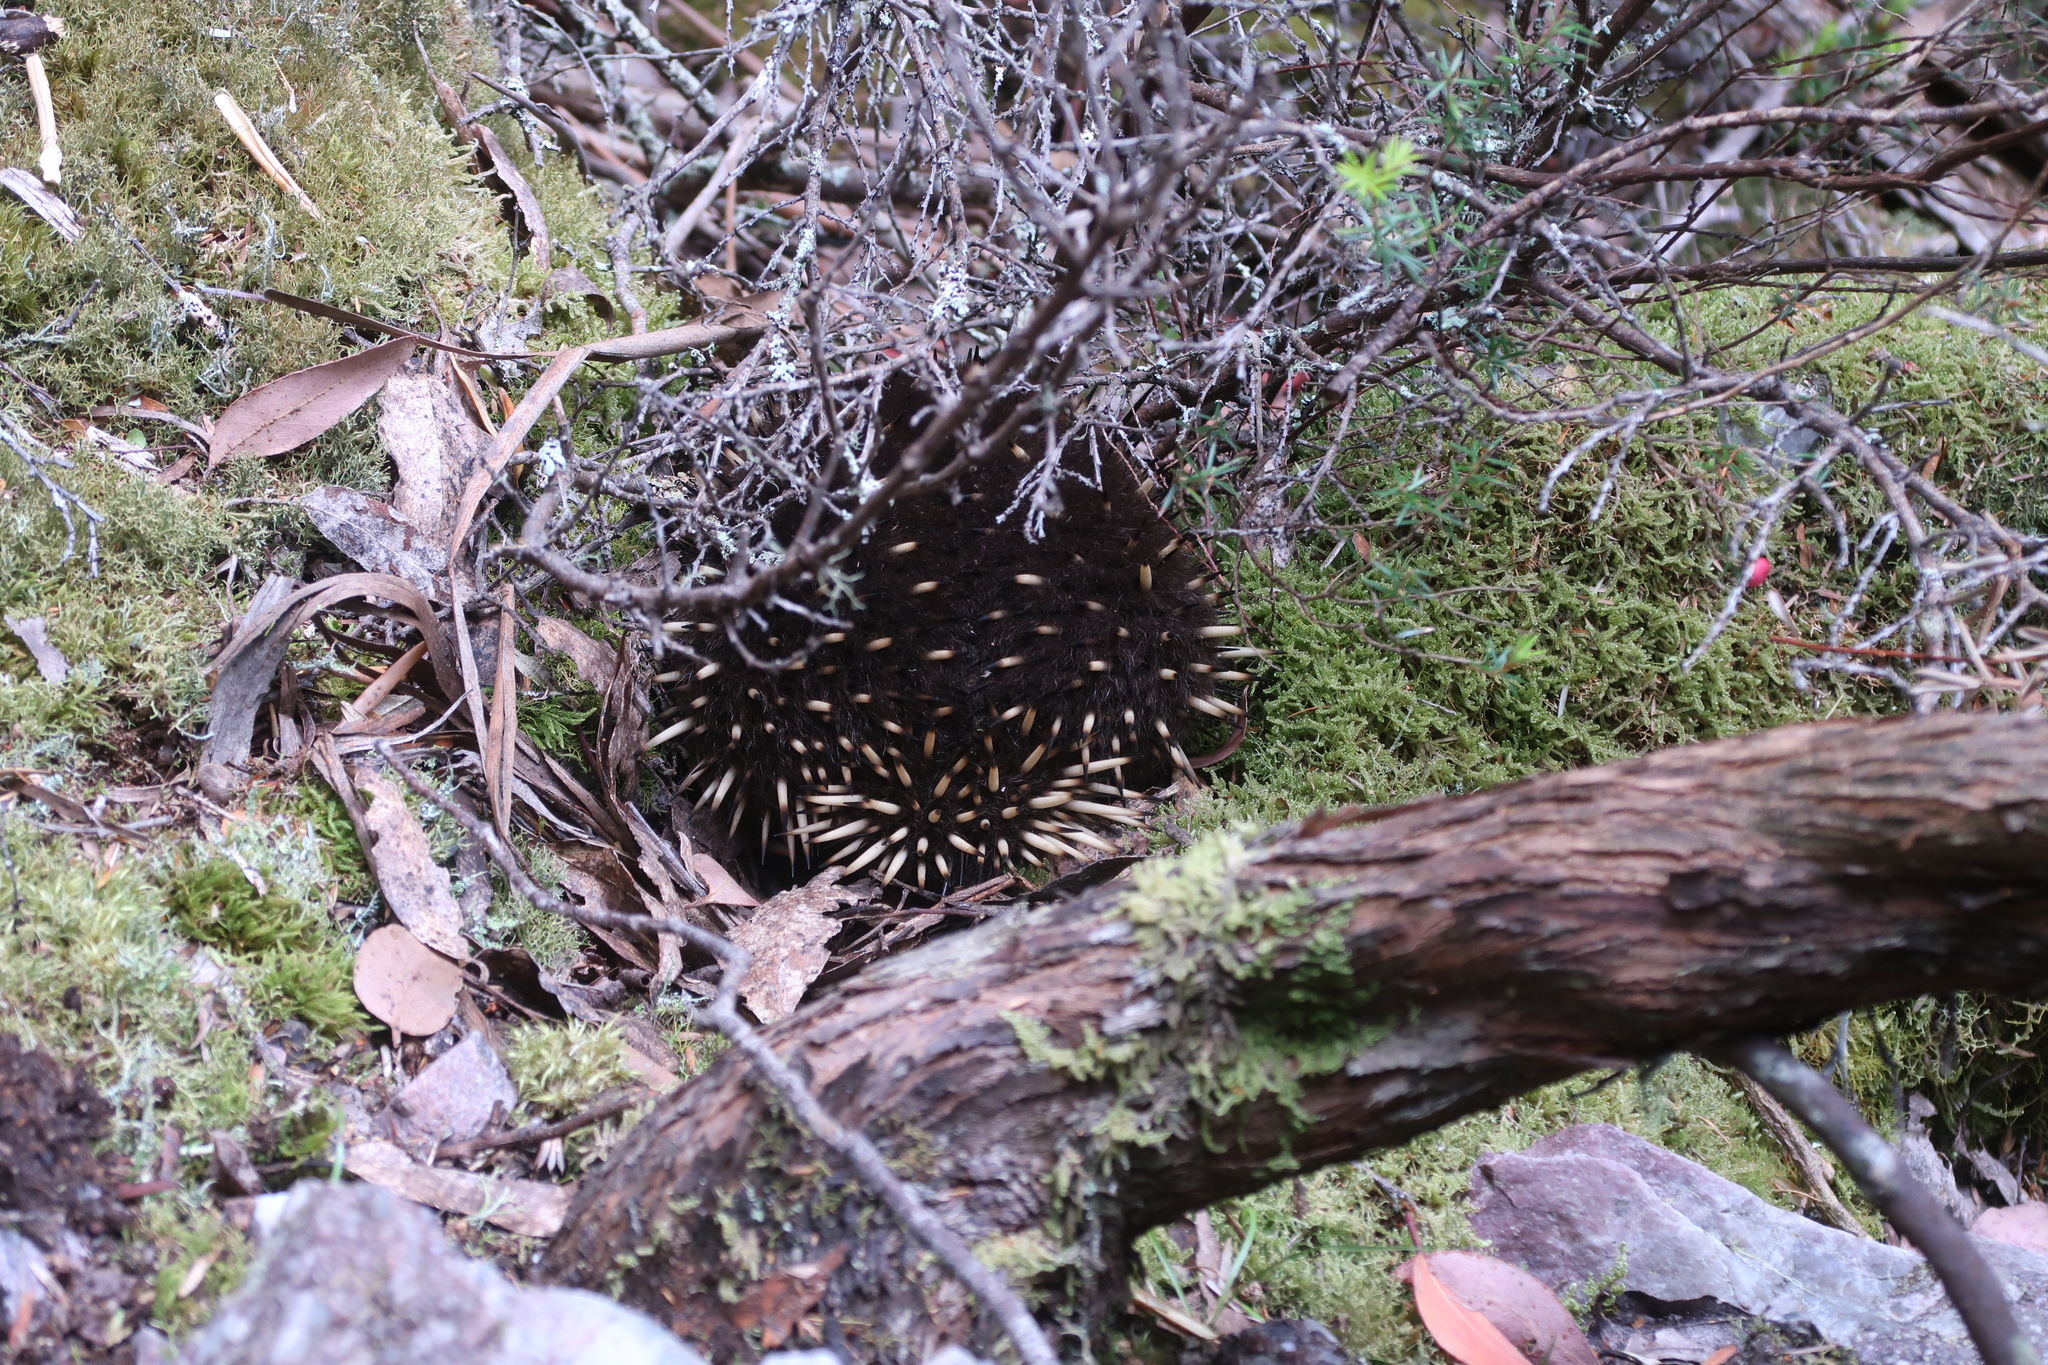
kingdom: Animalia
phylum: Chordata
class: Mammalia
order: Monotremata
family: Tachyglossidae
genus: Tachyglossus
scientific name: Tachyglossus aculeatus
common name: Short-beaked echidna
